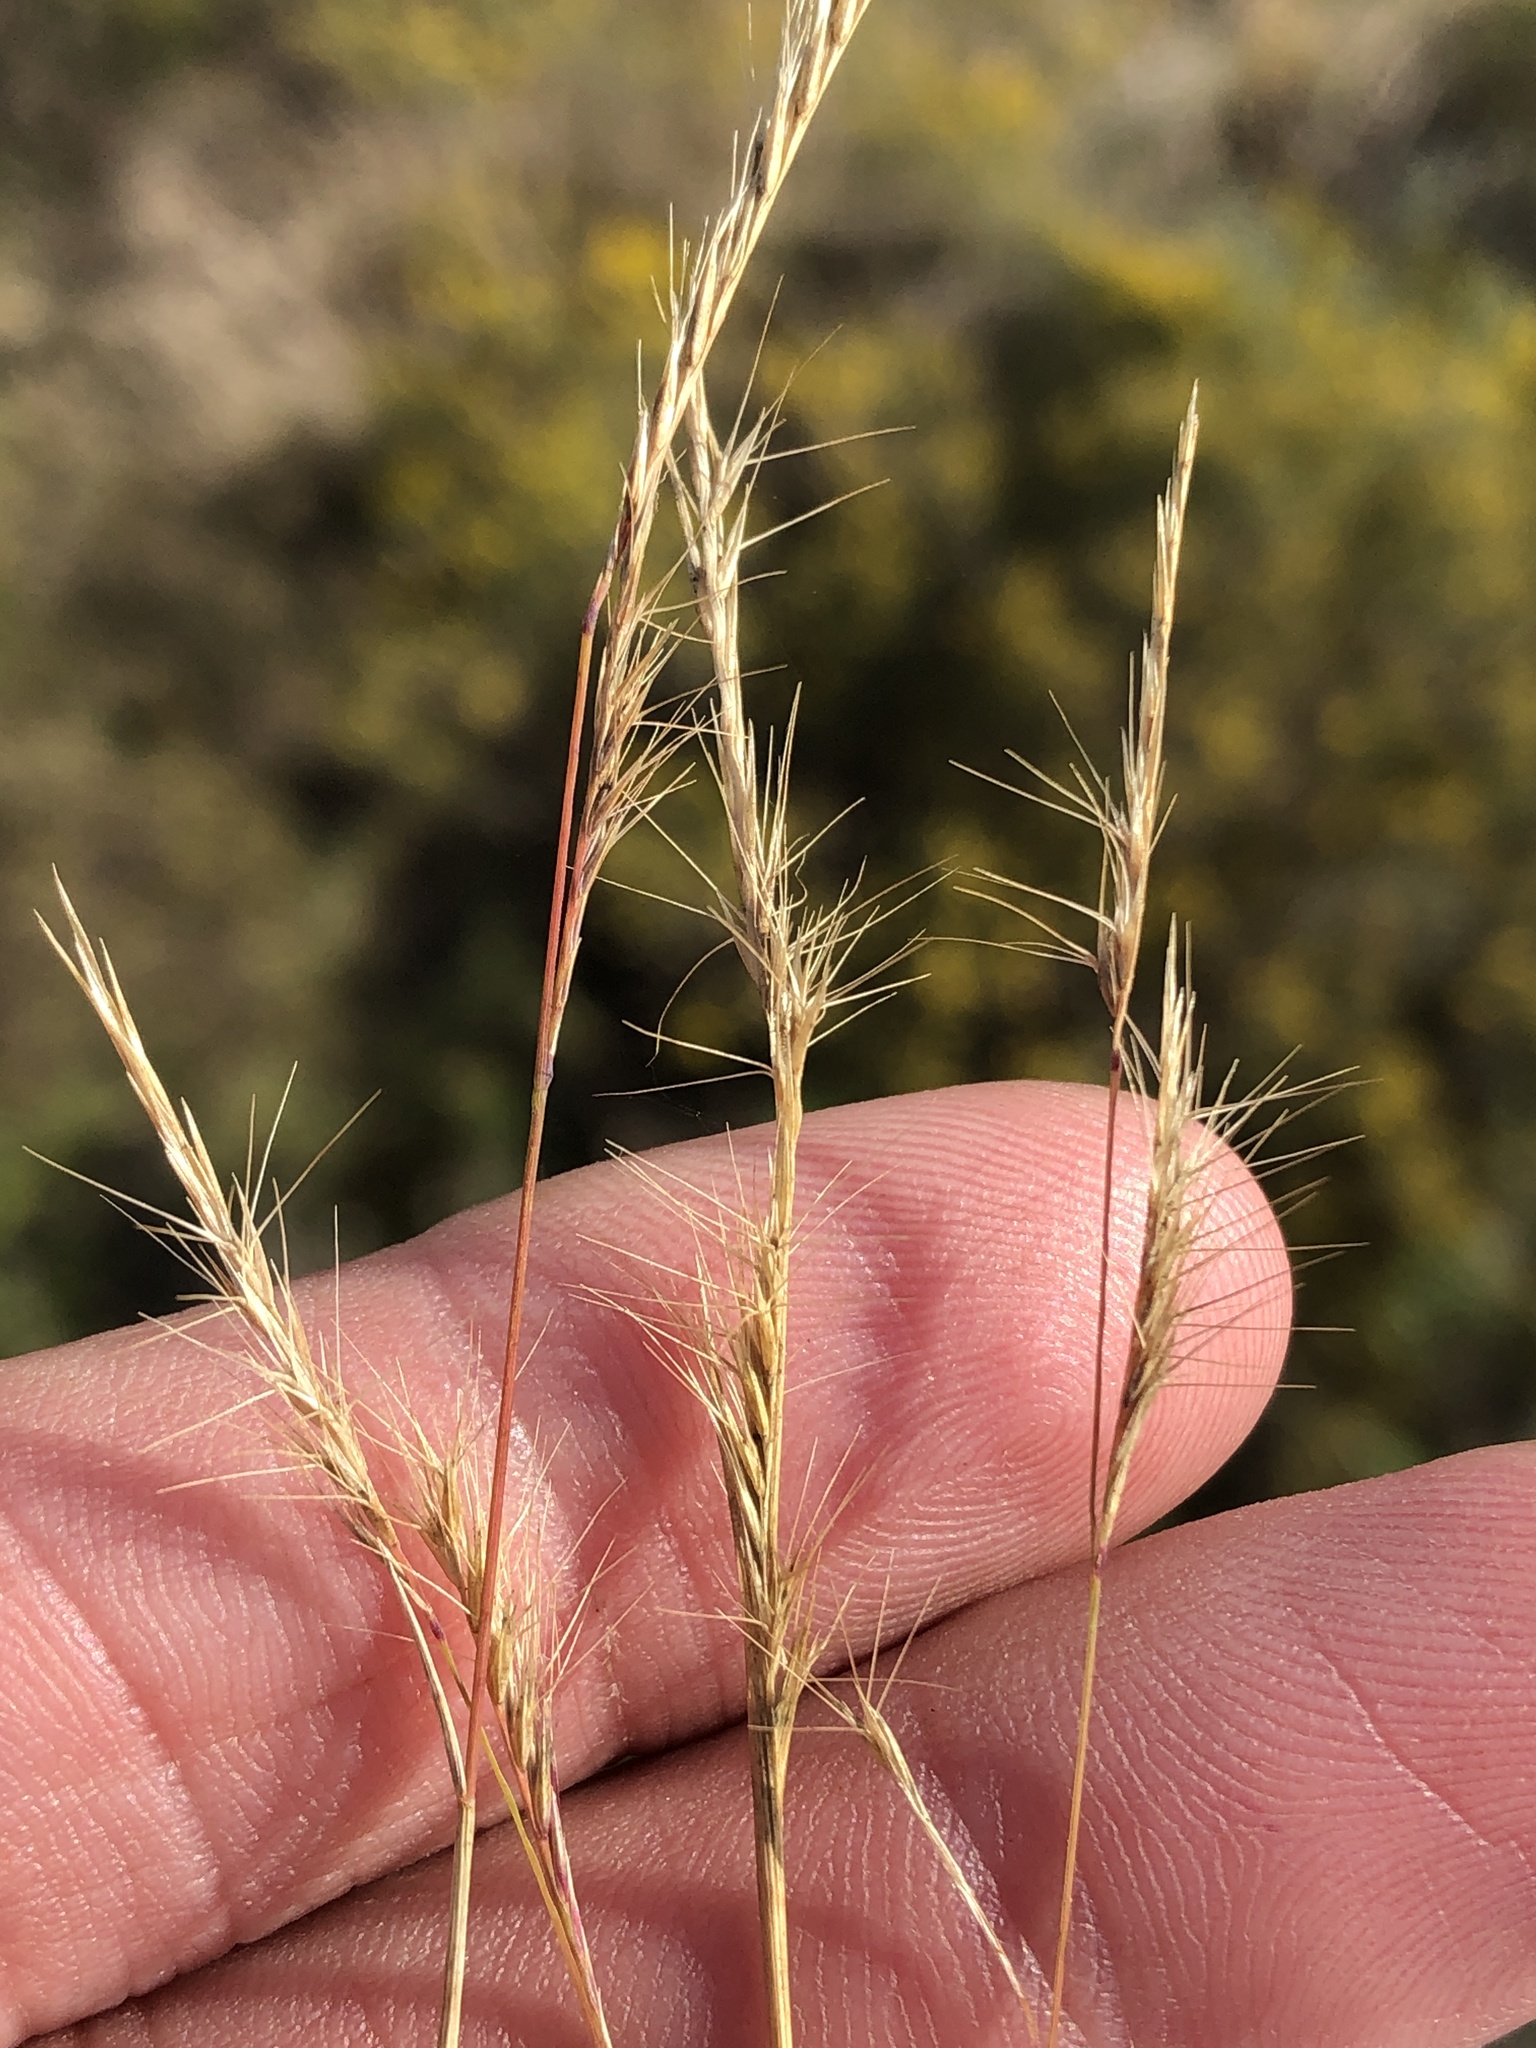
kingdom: Plantae
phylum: Tracheophyta
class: Liliopsida
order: Poales
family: Poaceae
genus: Bouteloua
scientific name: Bouteloua trifida
